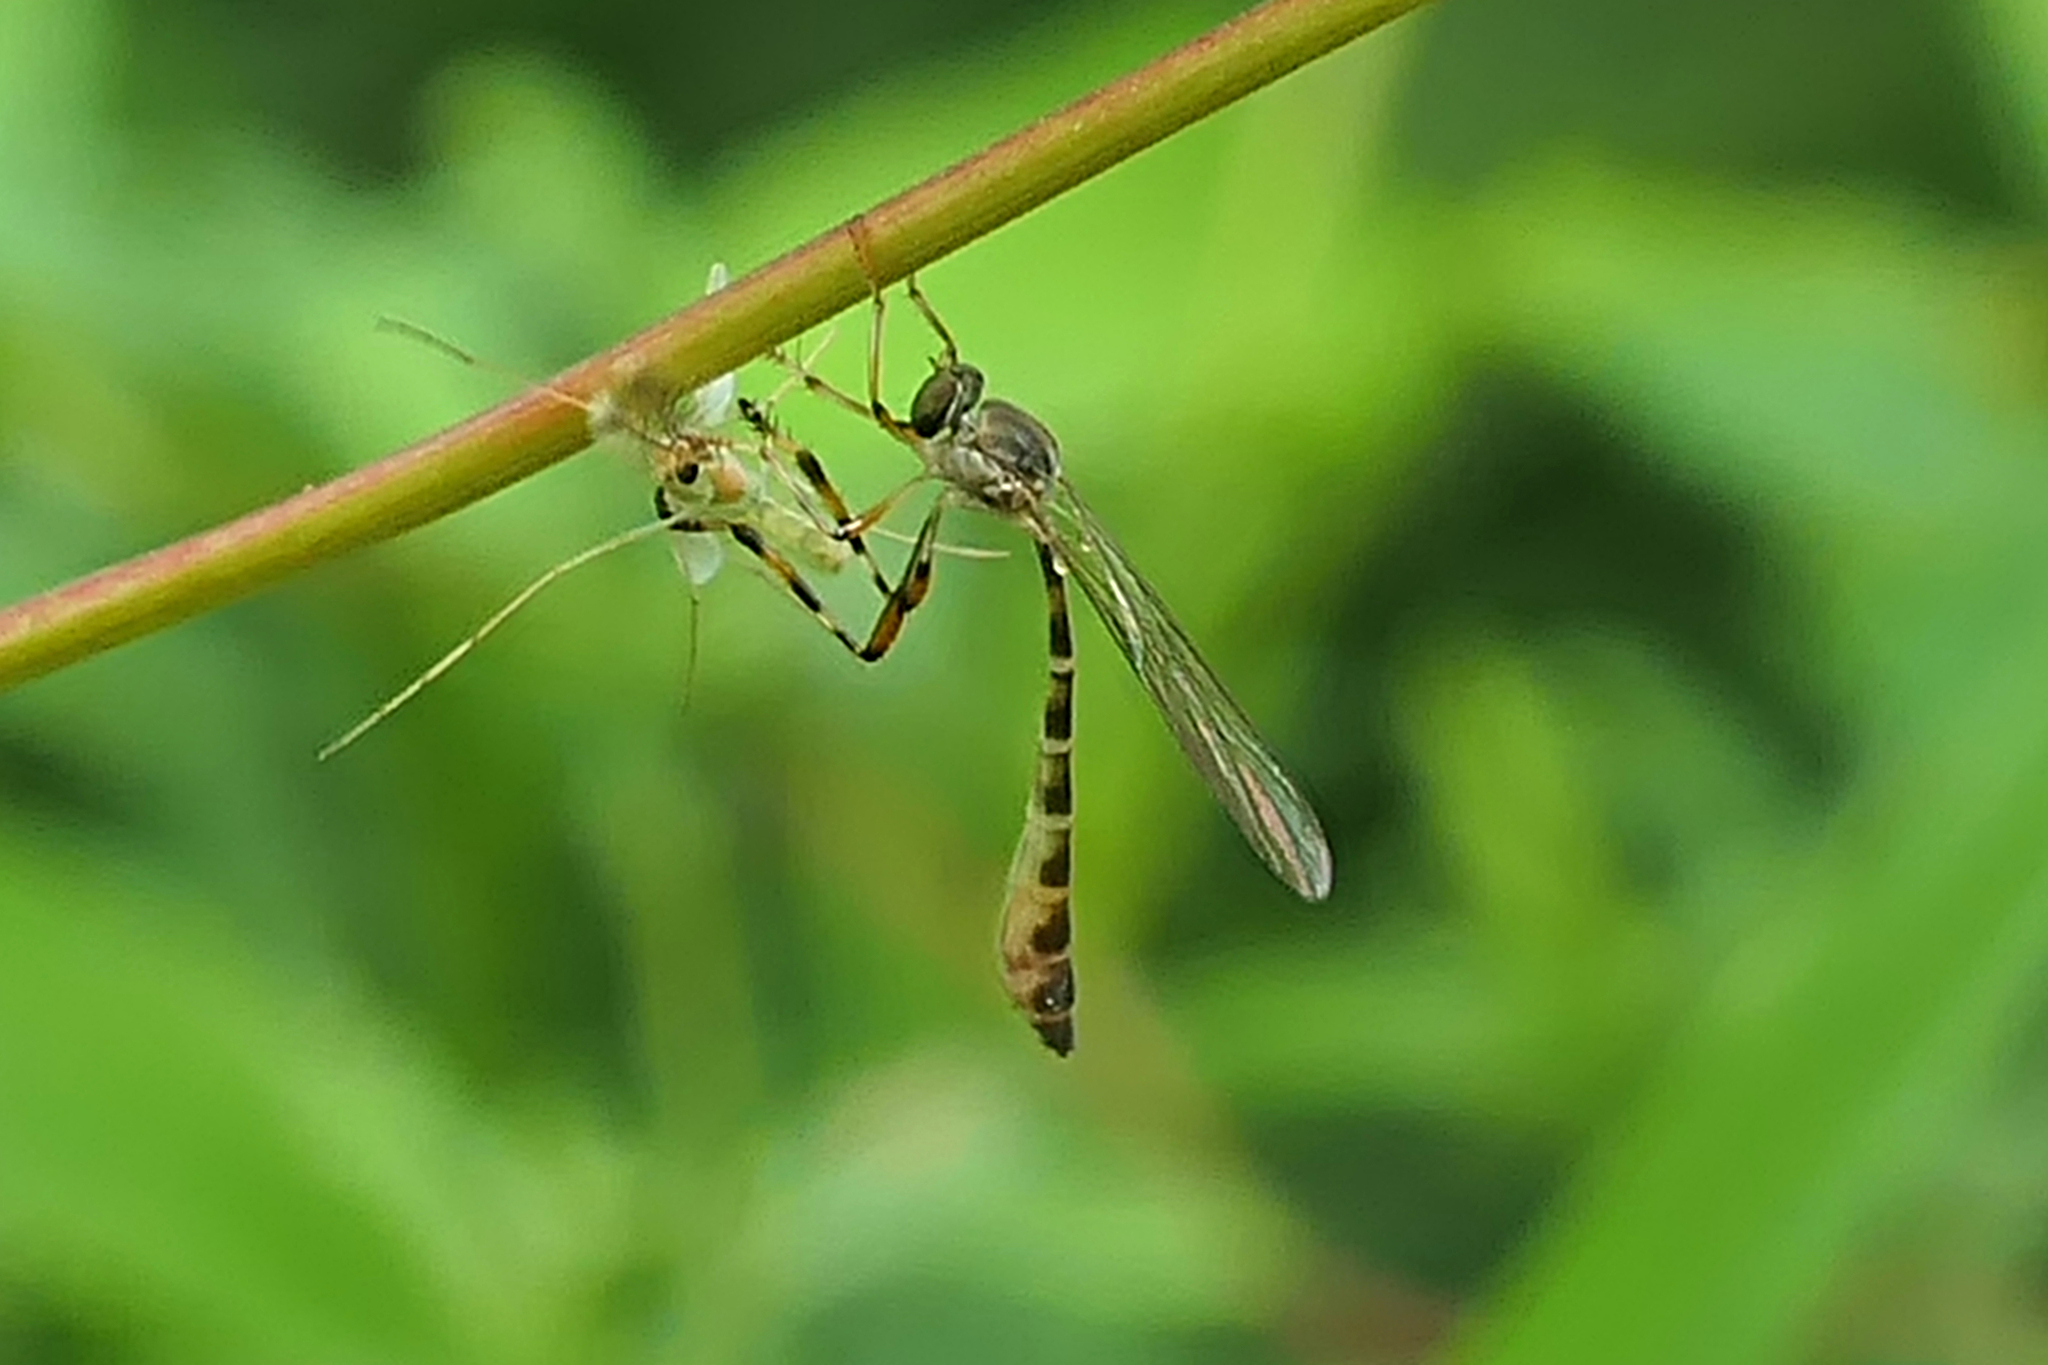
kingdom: Animalia
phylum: Arthropoda
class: Insecta
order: Diptera
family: Asilidae
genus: Psilonyx
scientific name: Psilonyx annulatus
